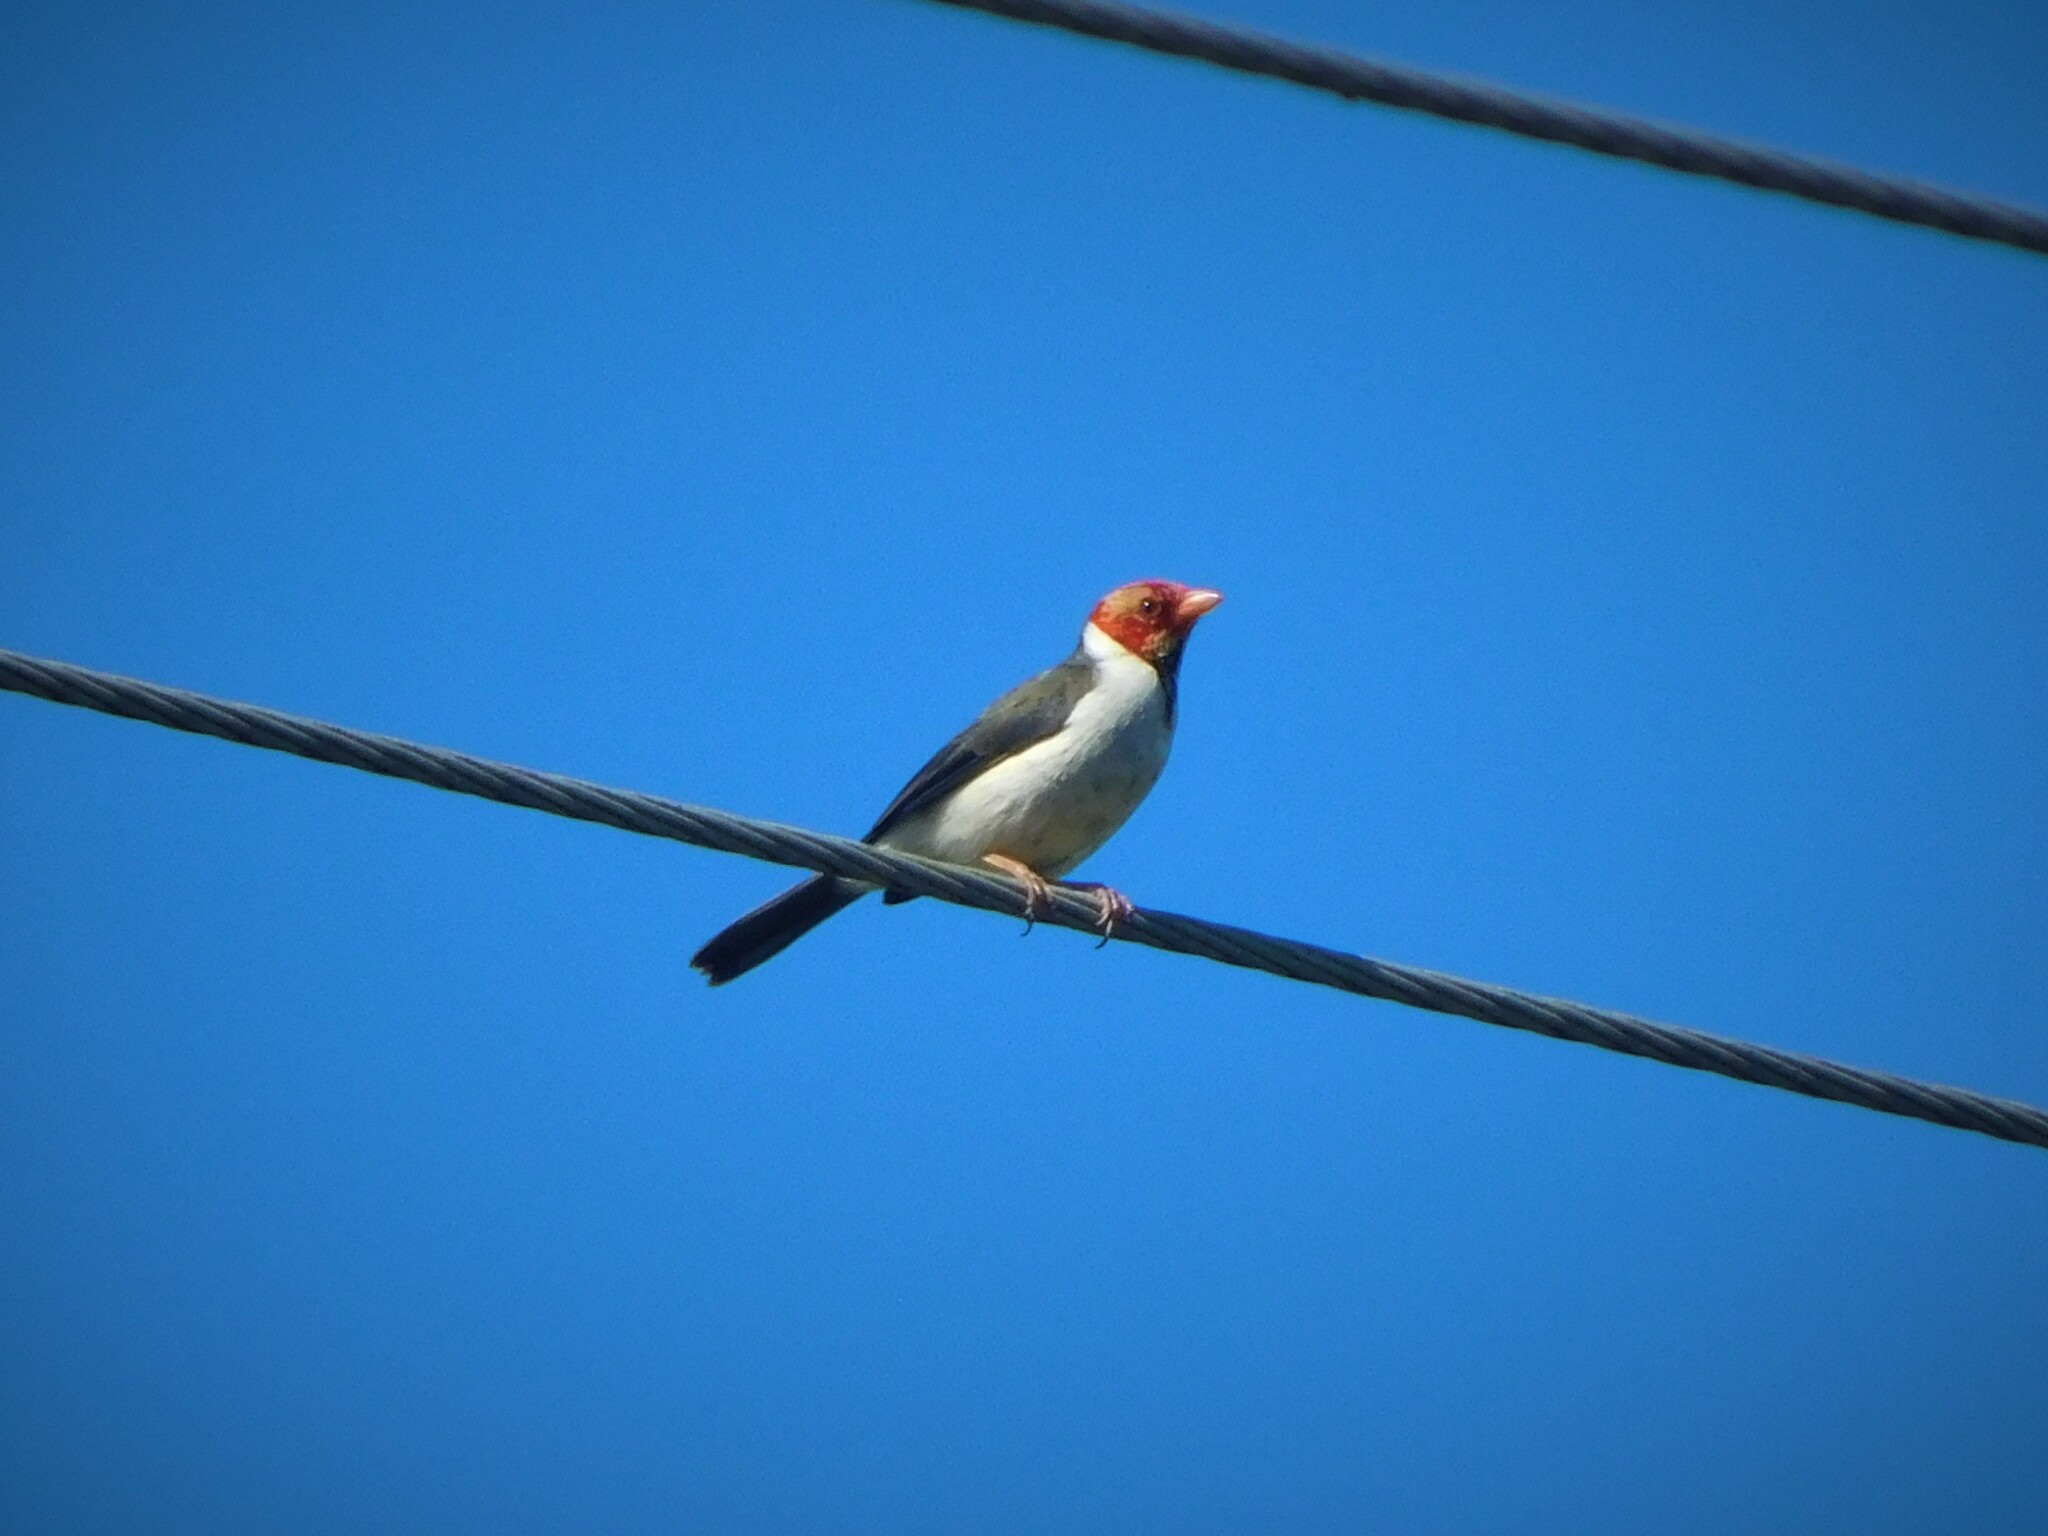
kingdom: Animalia
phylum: Chordata
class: Aves
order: Passeriformes
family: Thraupidae
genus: Paroaria
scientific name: Paroaria capitata
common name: Yellow-billed cardinal
